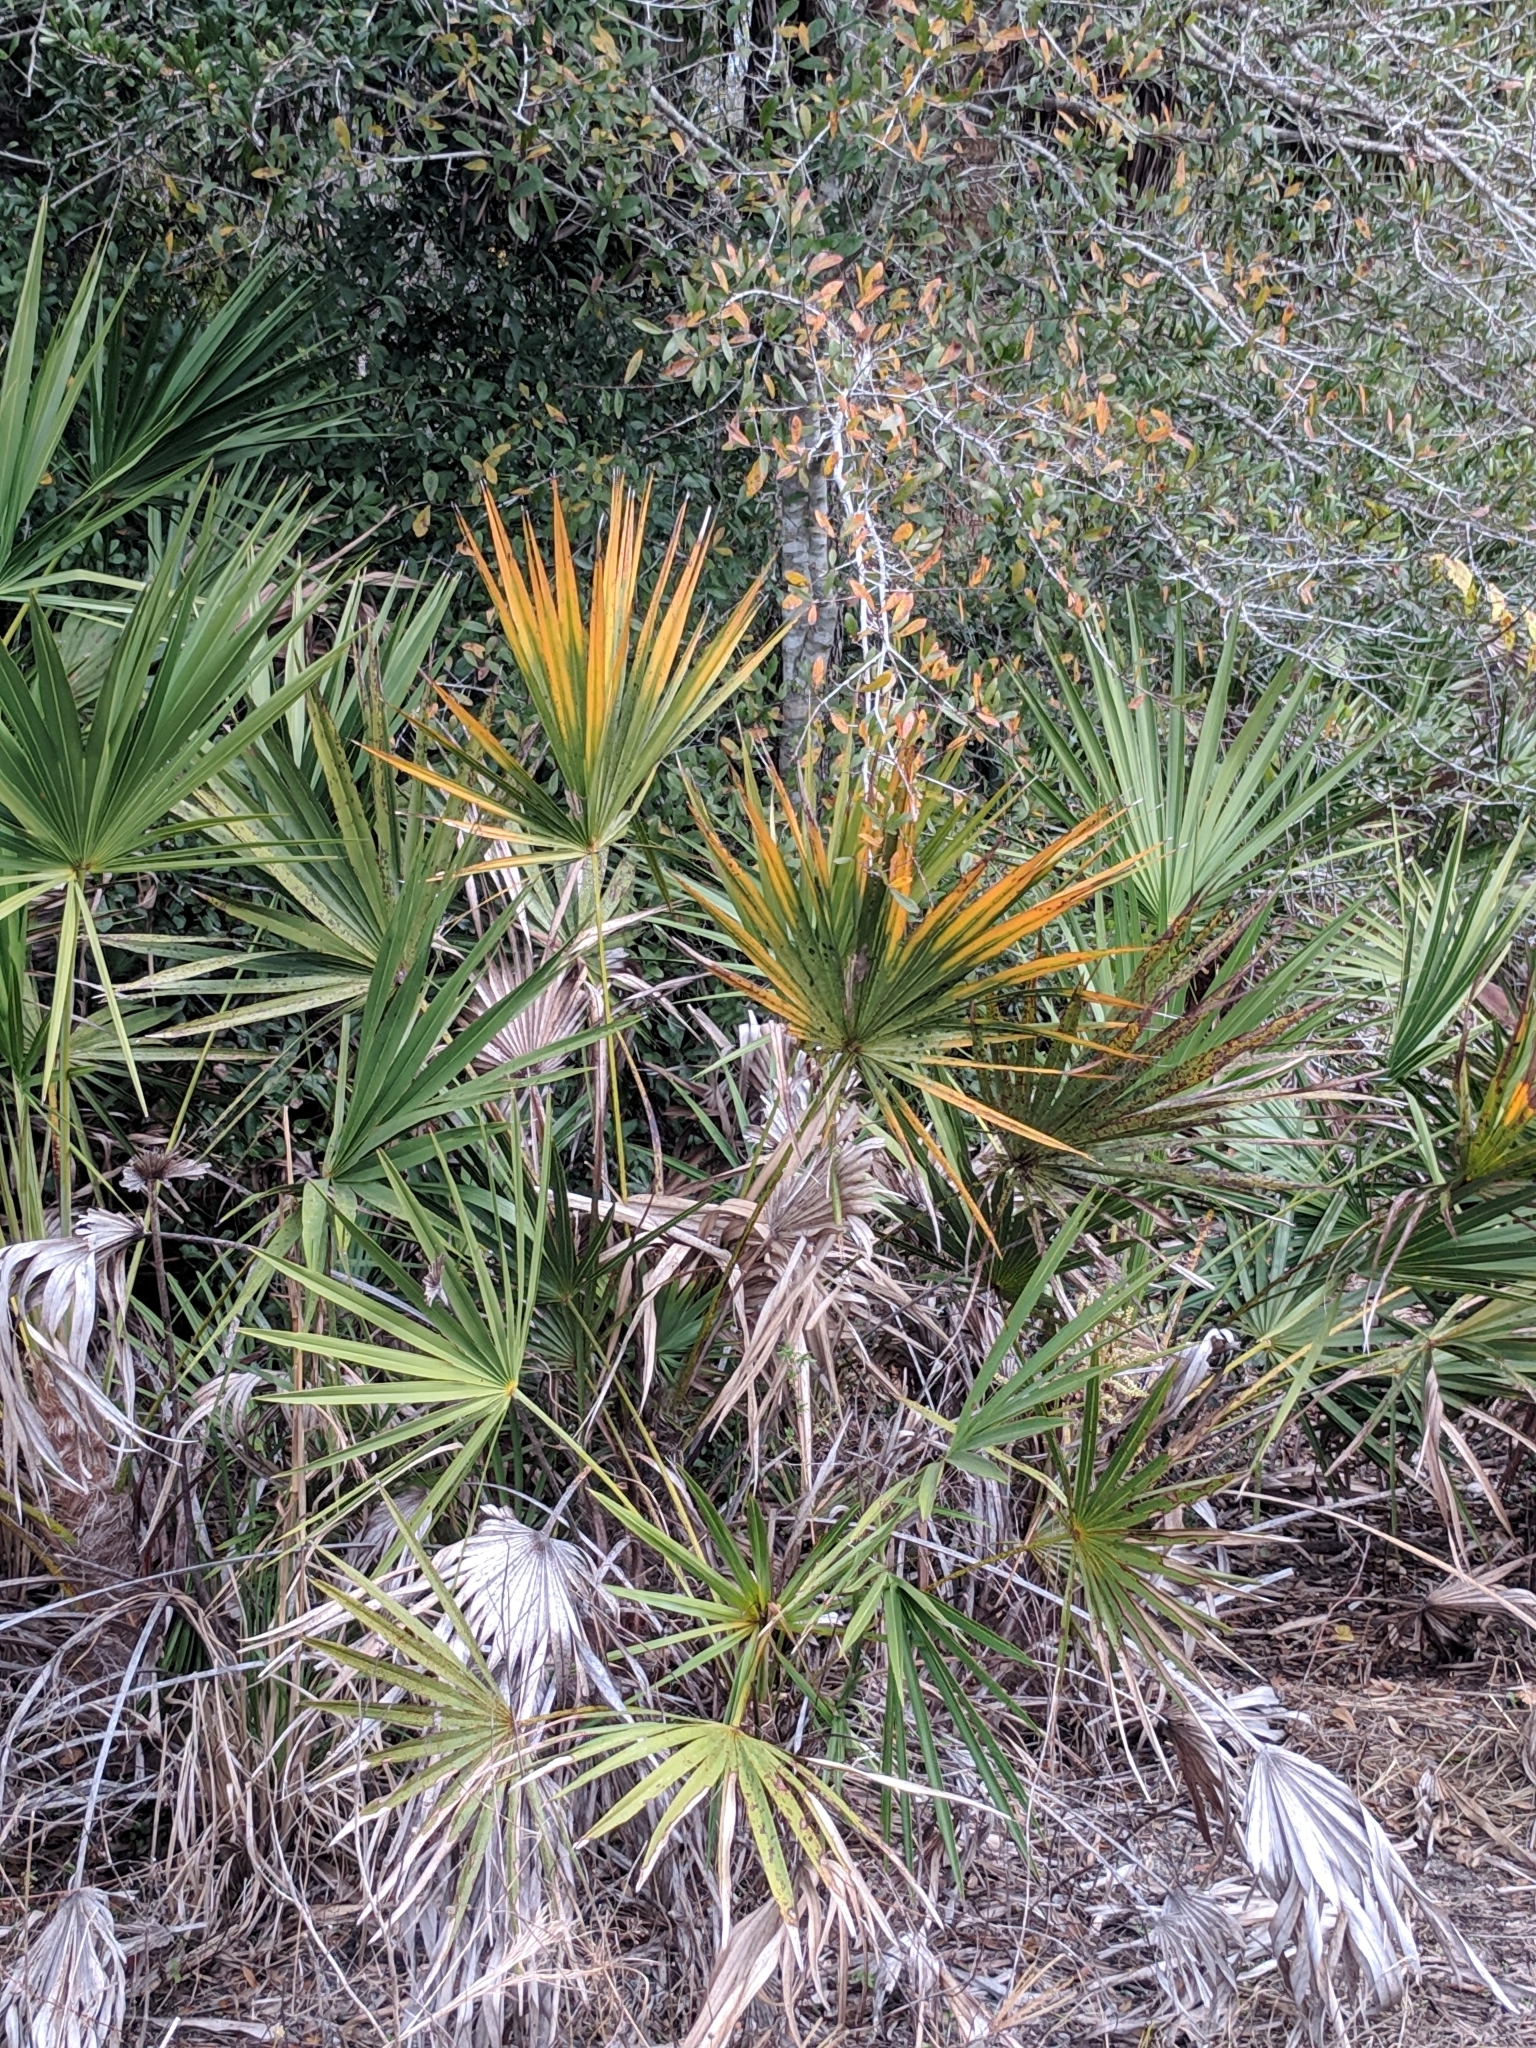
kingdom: Plantae
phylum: Tracheophyta
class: Liliopsida
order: Arecales
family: Arecaceae
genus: Serenoa
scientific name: Serenoa repens
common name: Saw-palmetto
